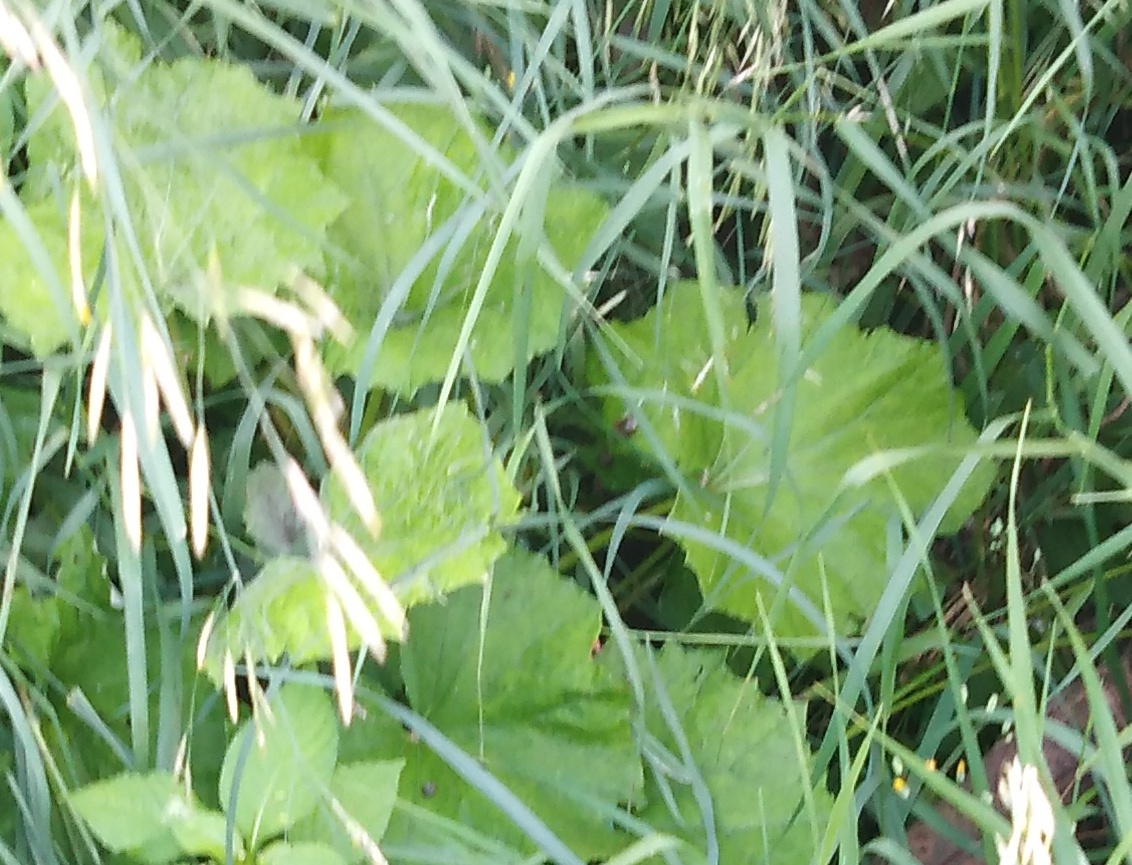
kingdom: Plantae
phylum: Tracheophyta
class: Magnoliopsida
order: Asterales
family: Asteraceae
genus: Tussilago
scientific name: Tussilago farfara
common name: Coltsfoot
